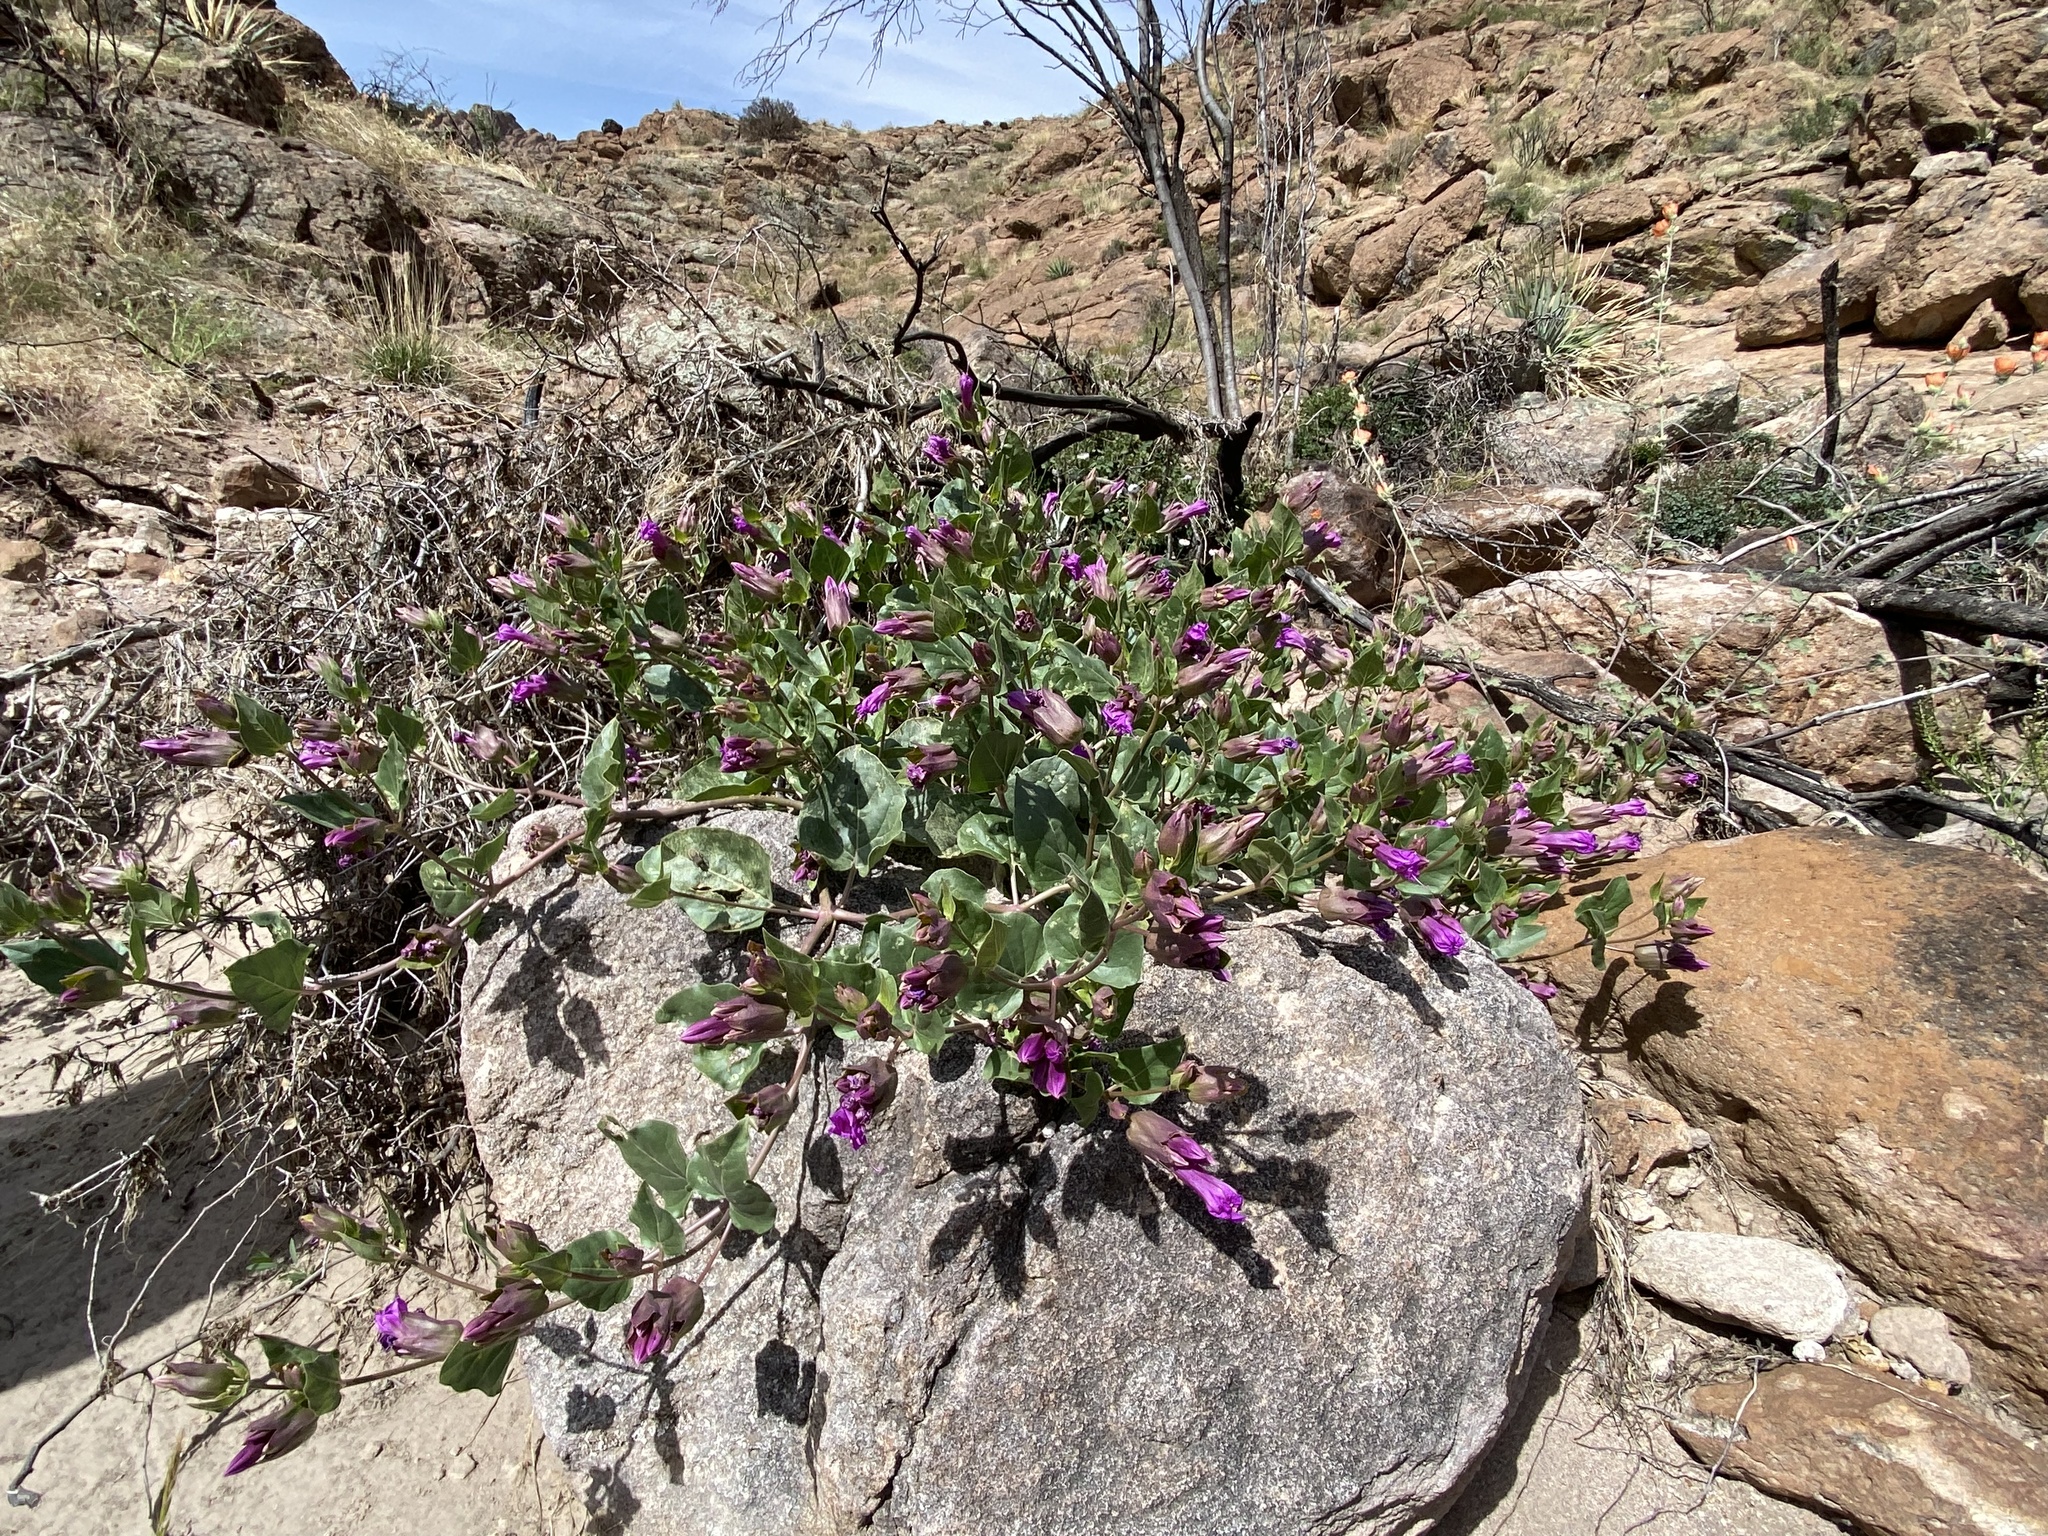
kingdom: Plantae
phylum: Tracheophyta
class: Magnoliopsida
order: Caryophyllales
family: Nyctaginaceae
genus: Mirabilis
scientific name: Mirabilis multiflora
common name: Froebel's four-o'clock
